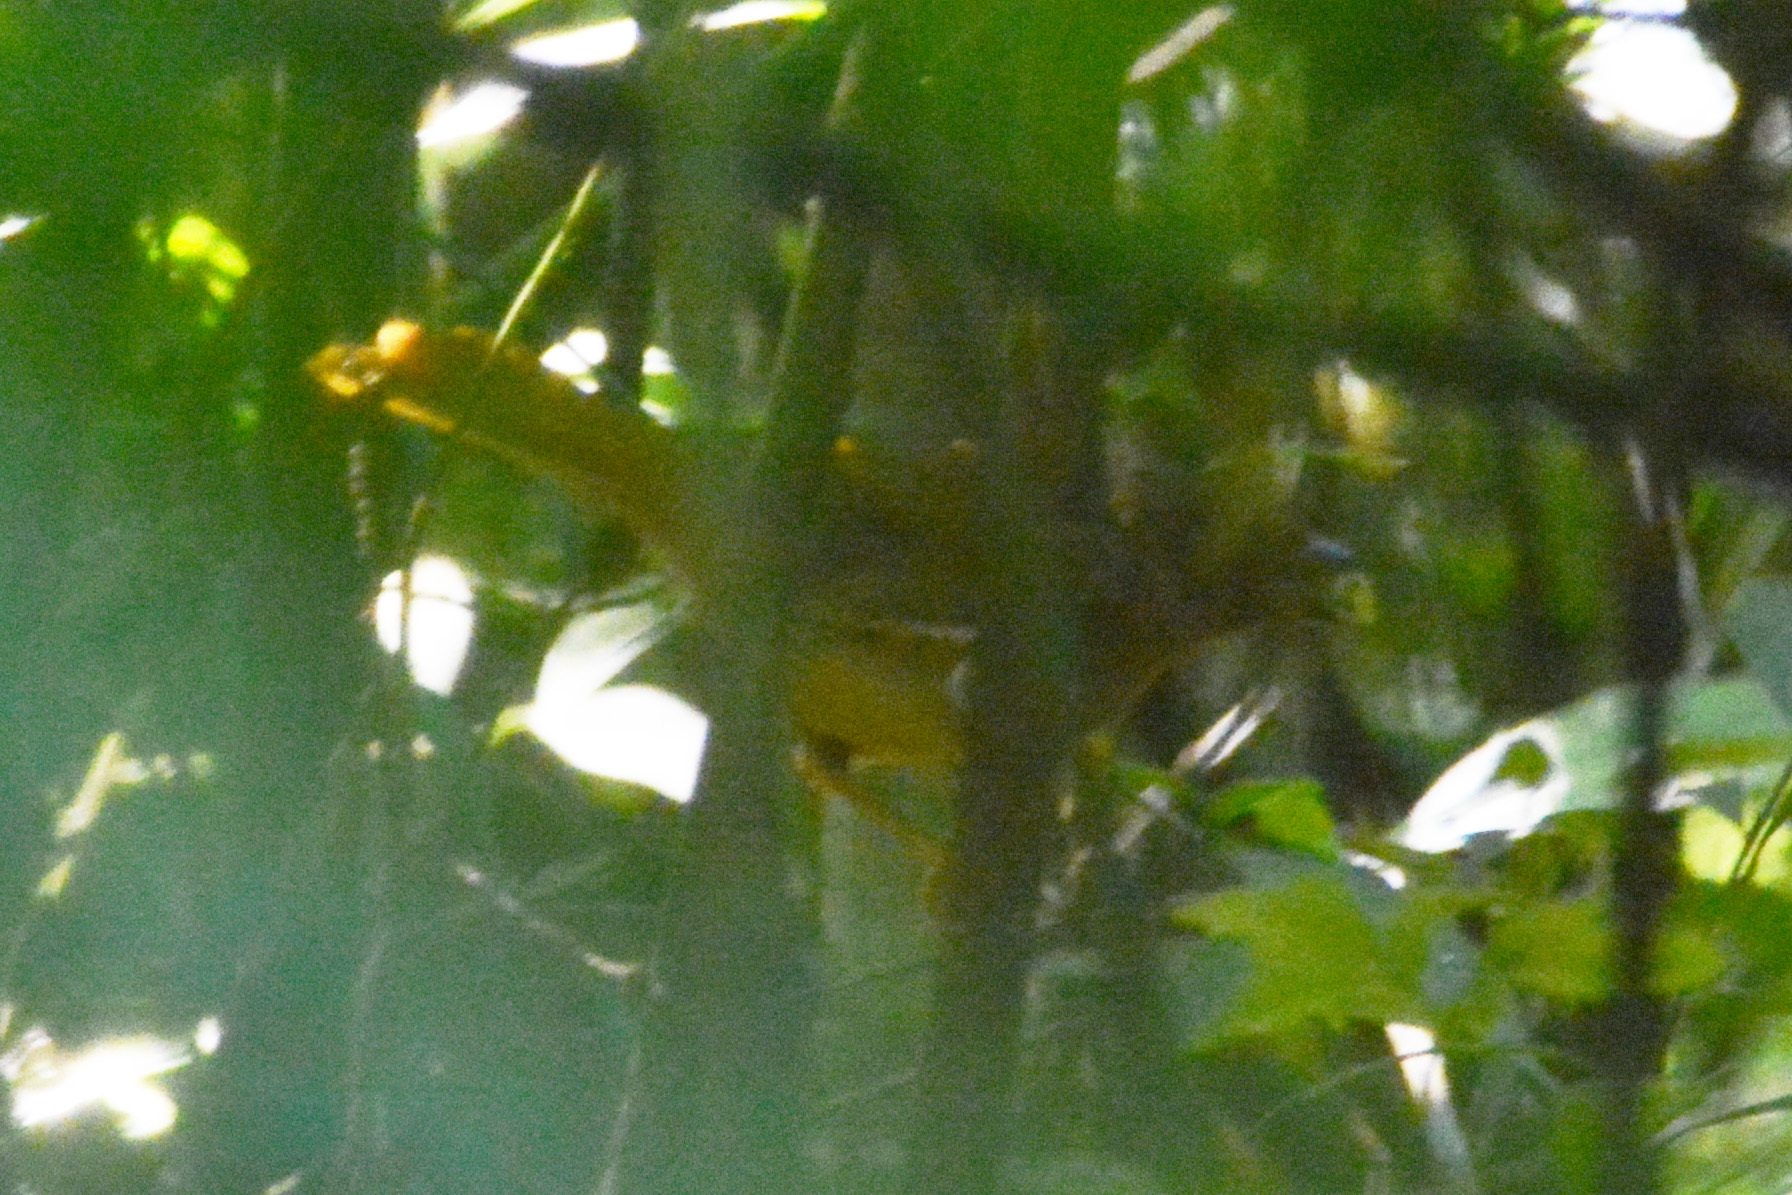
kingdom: Animalia
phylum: Chordata
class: Aves
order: Passeriformes
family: Cardinalidae
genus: Habia
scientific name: Habia rubica
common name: Red-crowned ant-tanager
